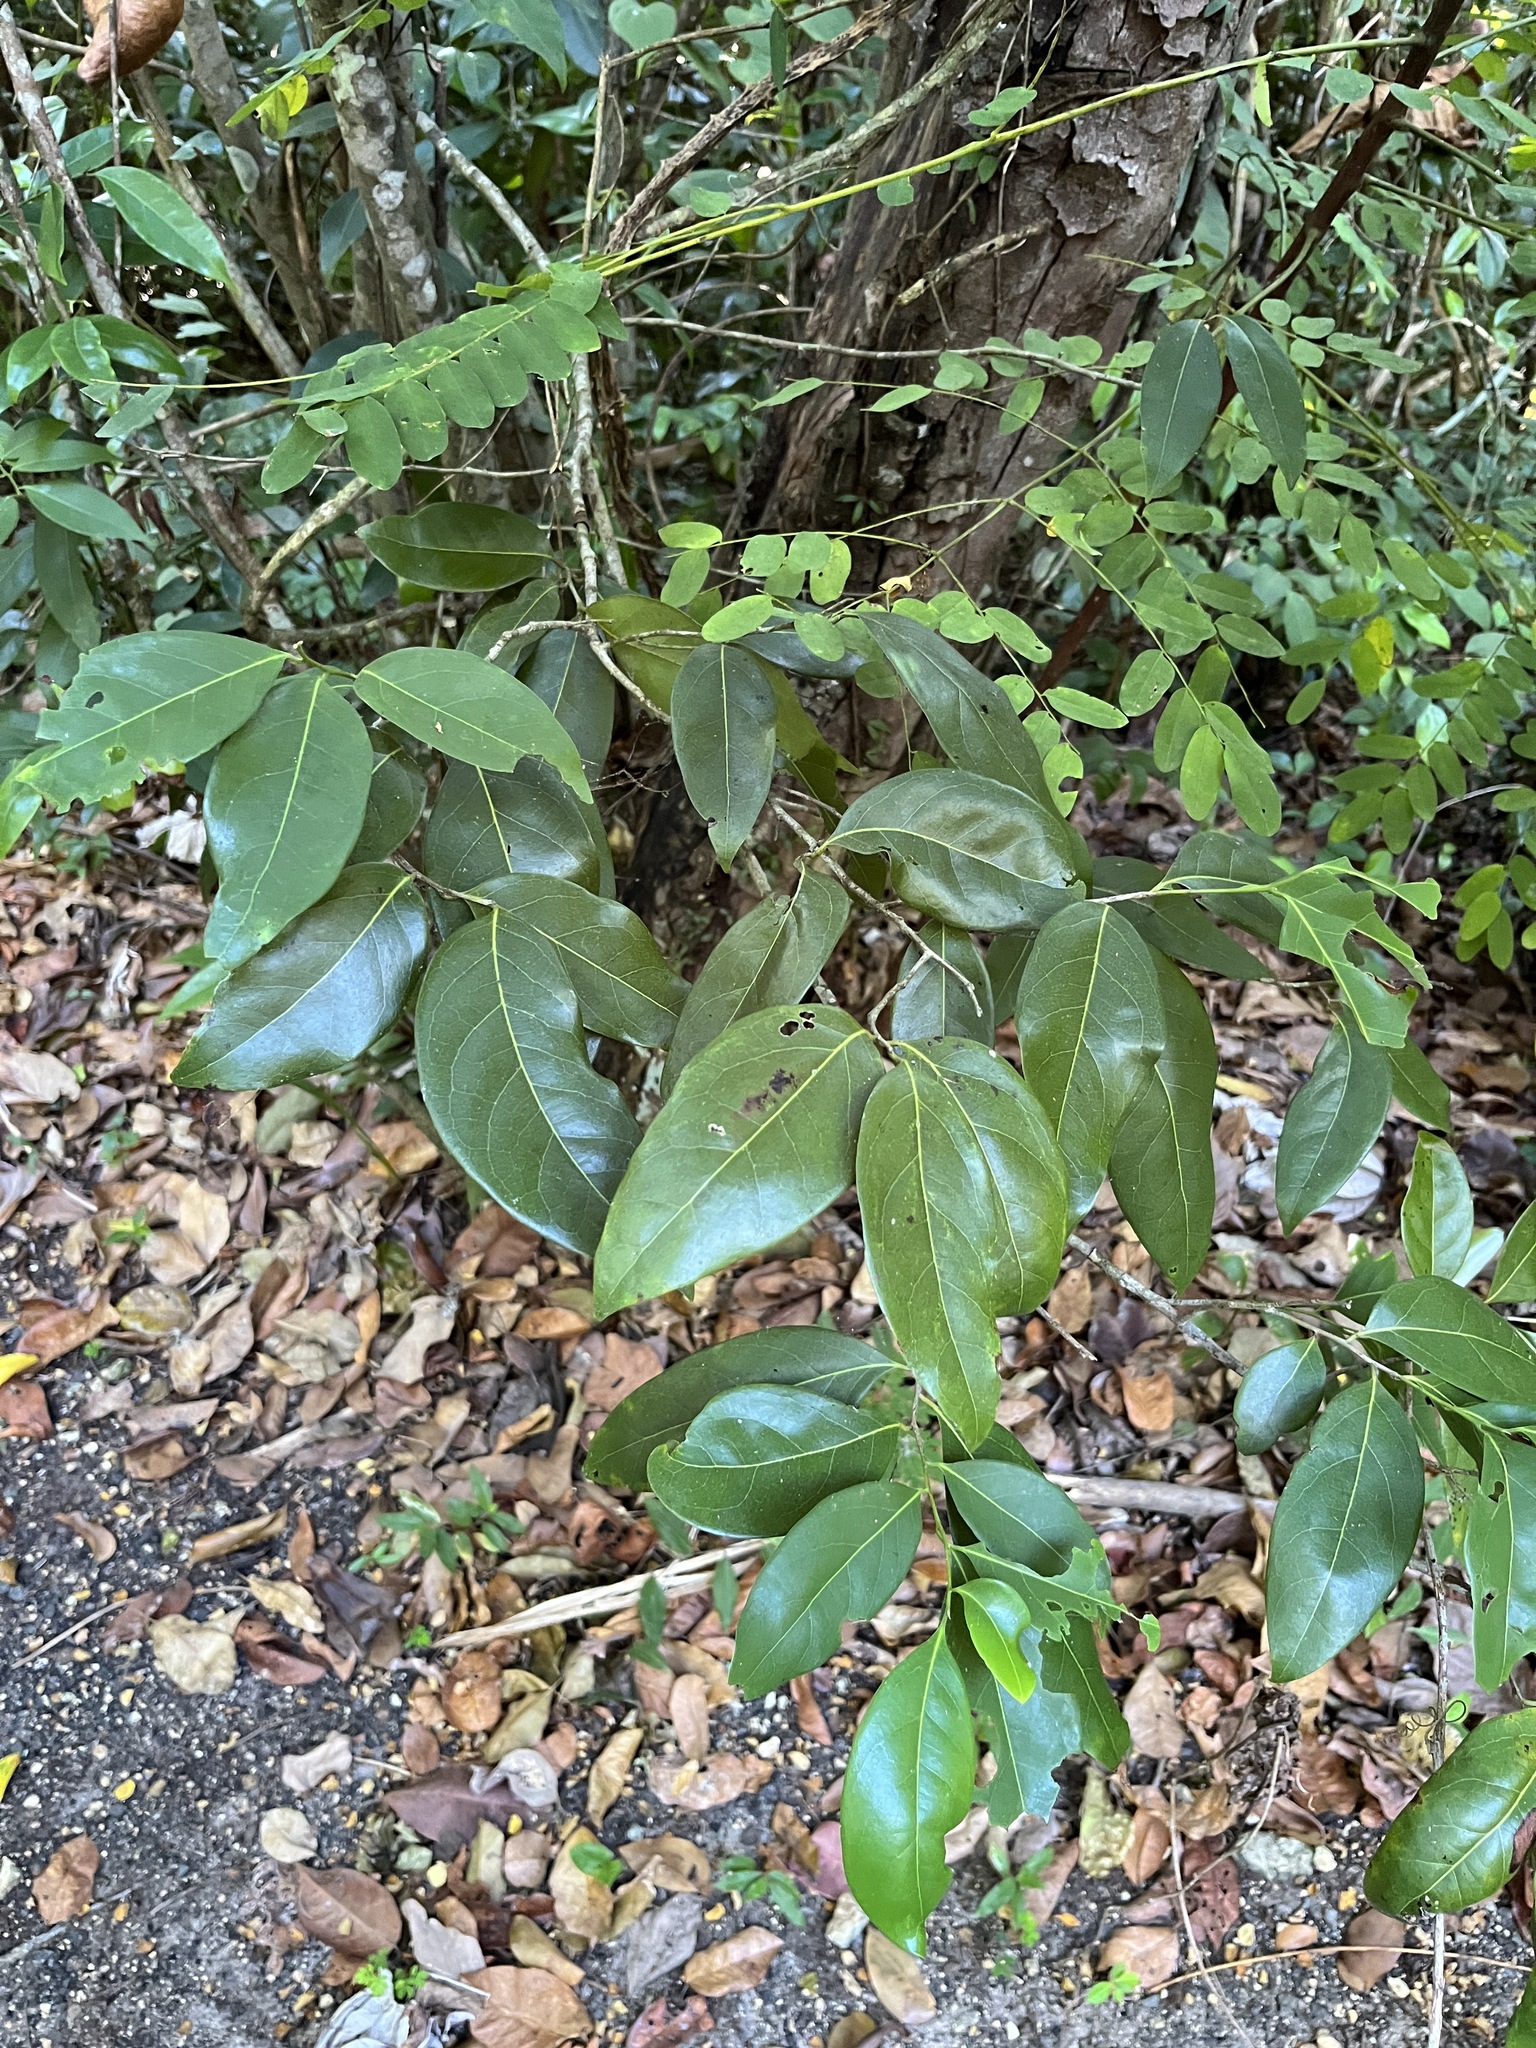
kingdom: Plantae
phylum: Tracheophyta
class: Magnoliopsida
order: Laurales
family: Lauraceae
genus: Damburneya
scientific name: Damburneya
